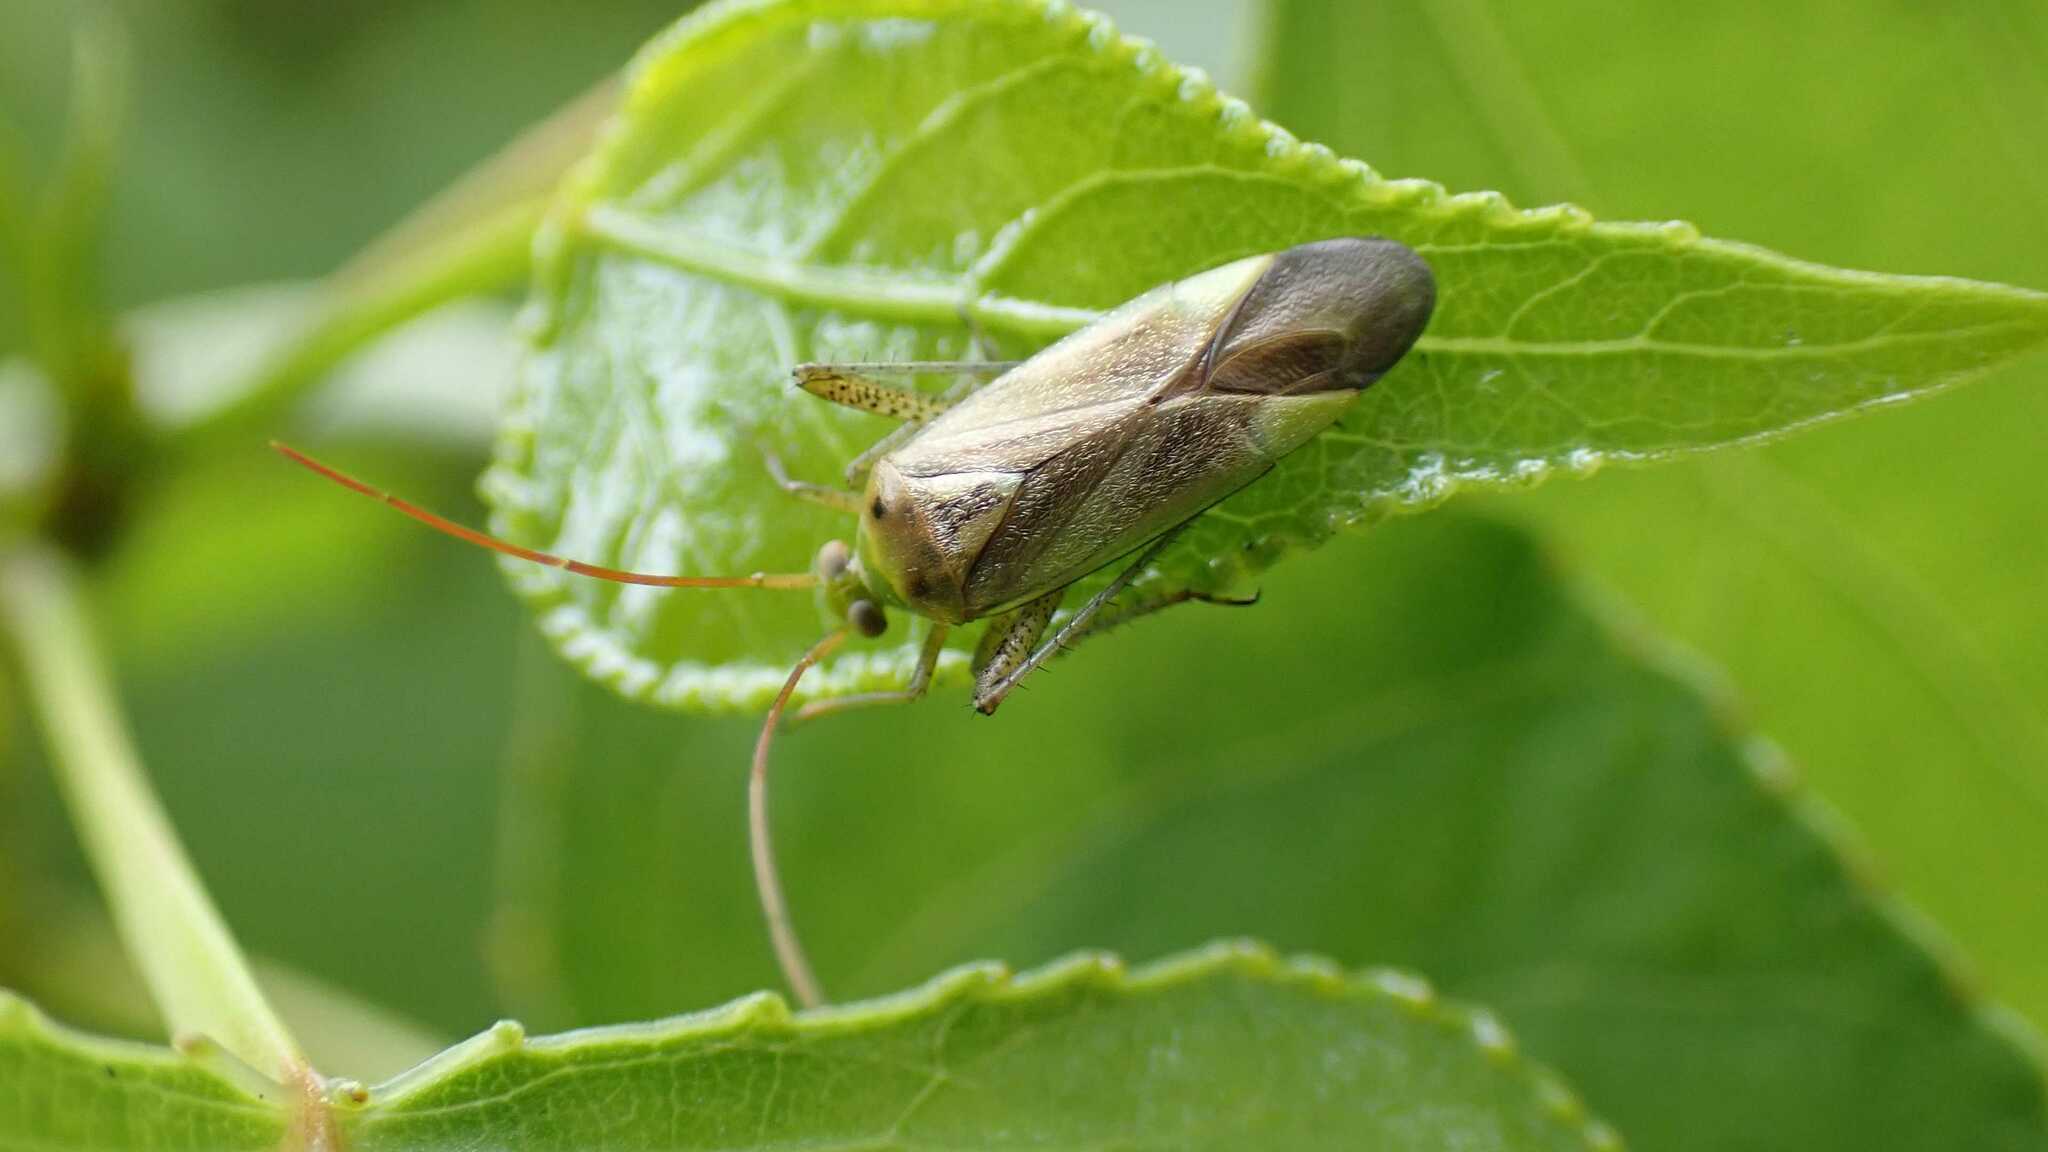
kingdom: Animalia
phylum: Arthropoda
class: Insecta
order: Hemiptera
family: Miridae
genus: Adelphocoris
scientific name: Adelphocoris lineolatus
